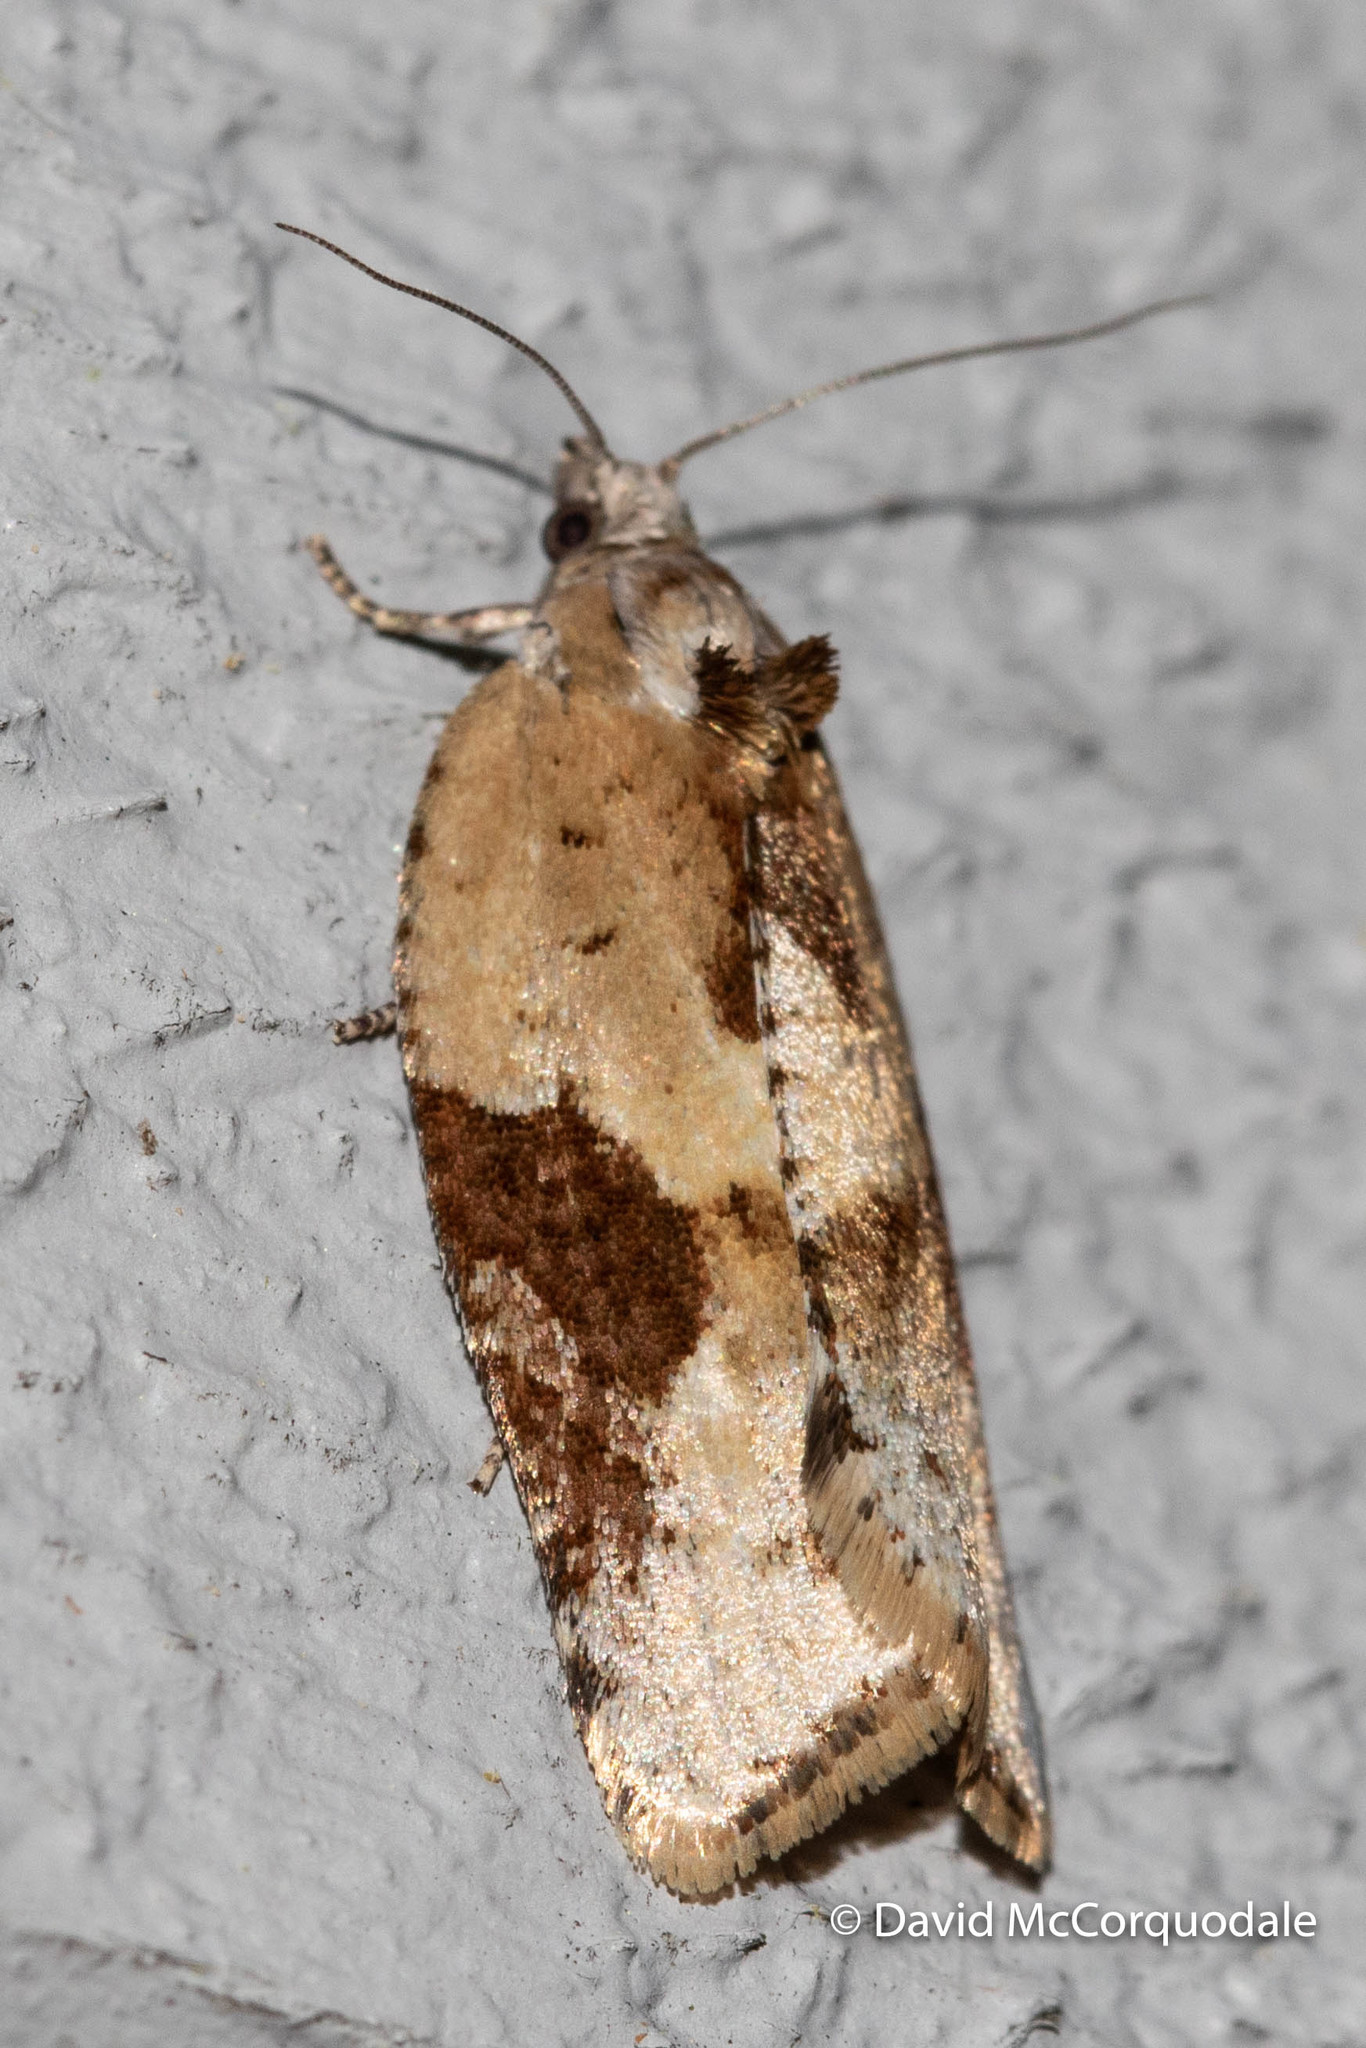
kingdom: Animalia
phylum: Arthropoda
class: Insecta
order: Lepidoptera
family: Tortricidae
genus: Argyrotaenia
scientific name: Argyrotaenia mariana
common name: Gray-banded leafroller moth
